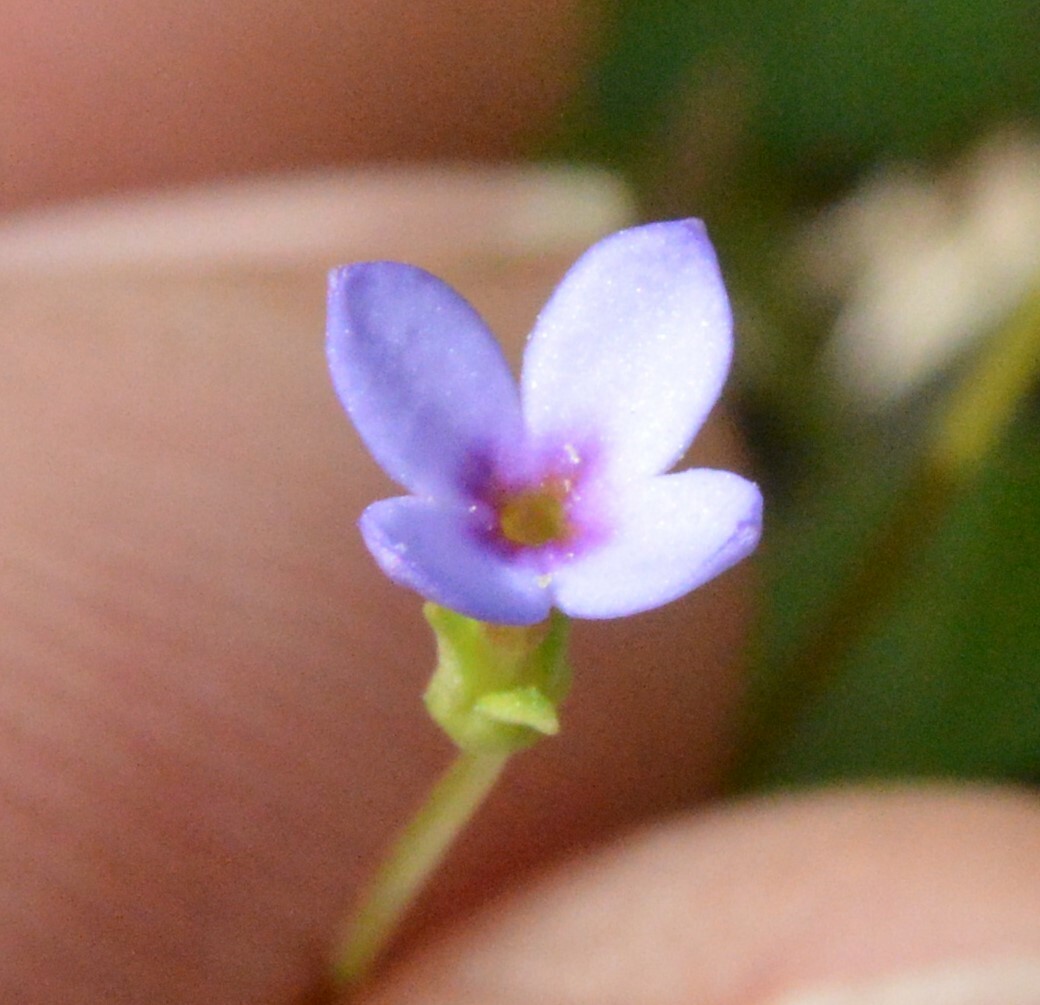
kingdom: Plantae
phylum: Tracheophyta
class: Magnoliopsida
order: Gentianales
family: Rubiaceae
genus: Houstonia
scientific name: Houstonia pusilla
